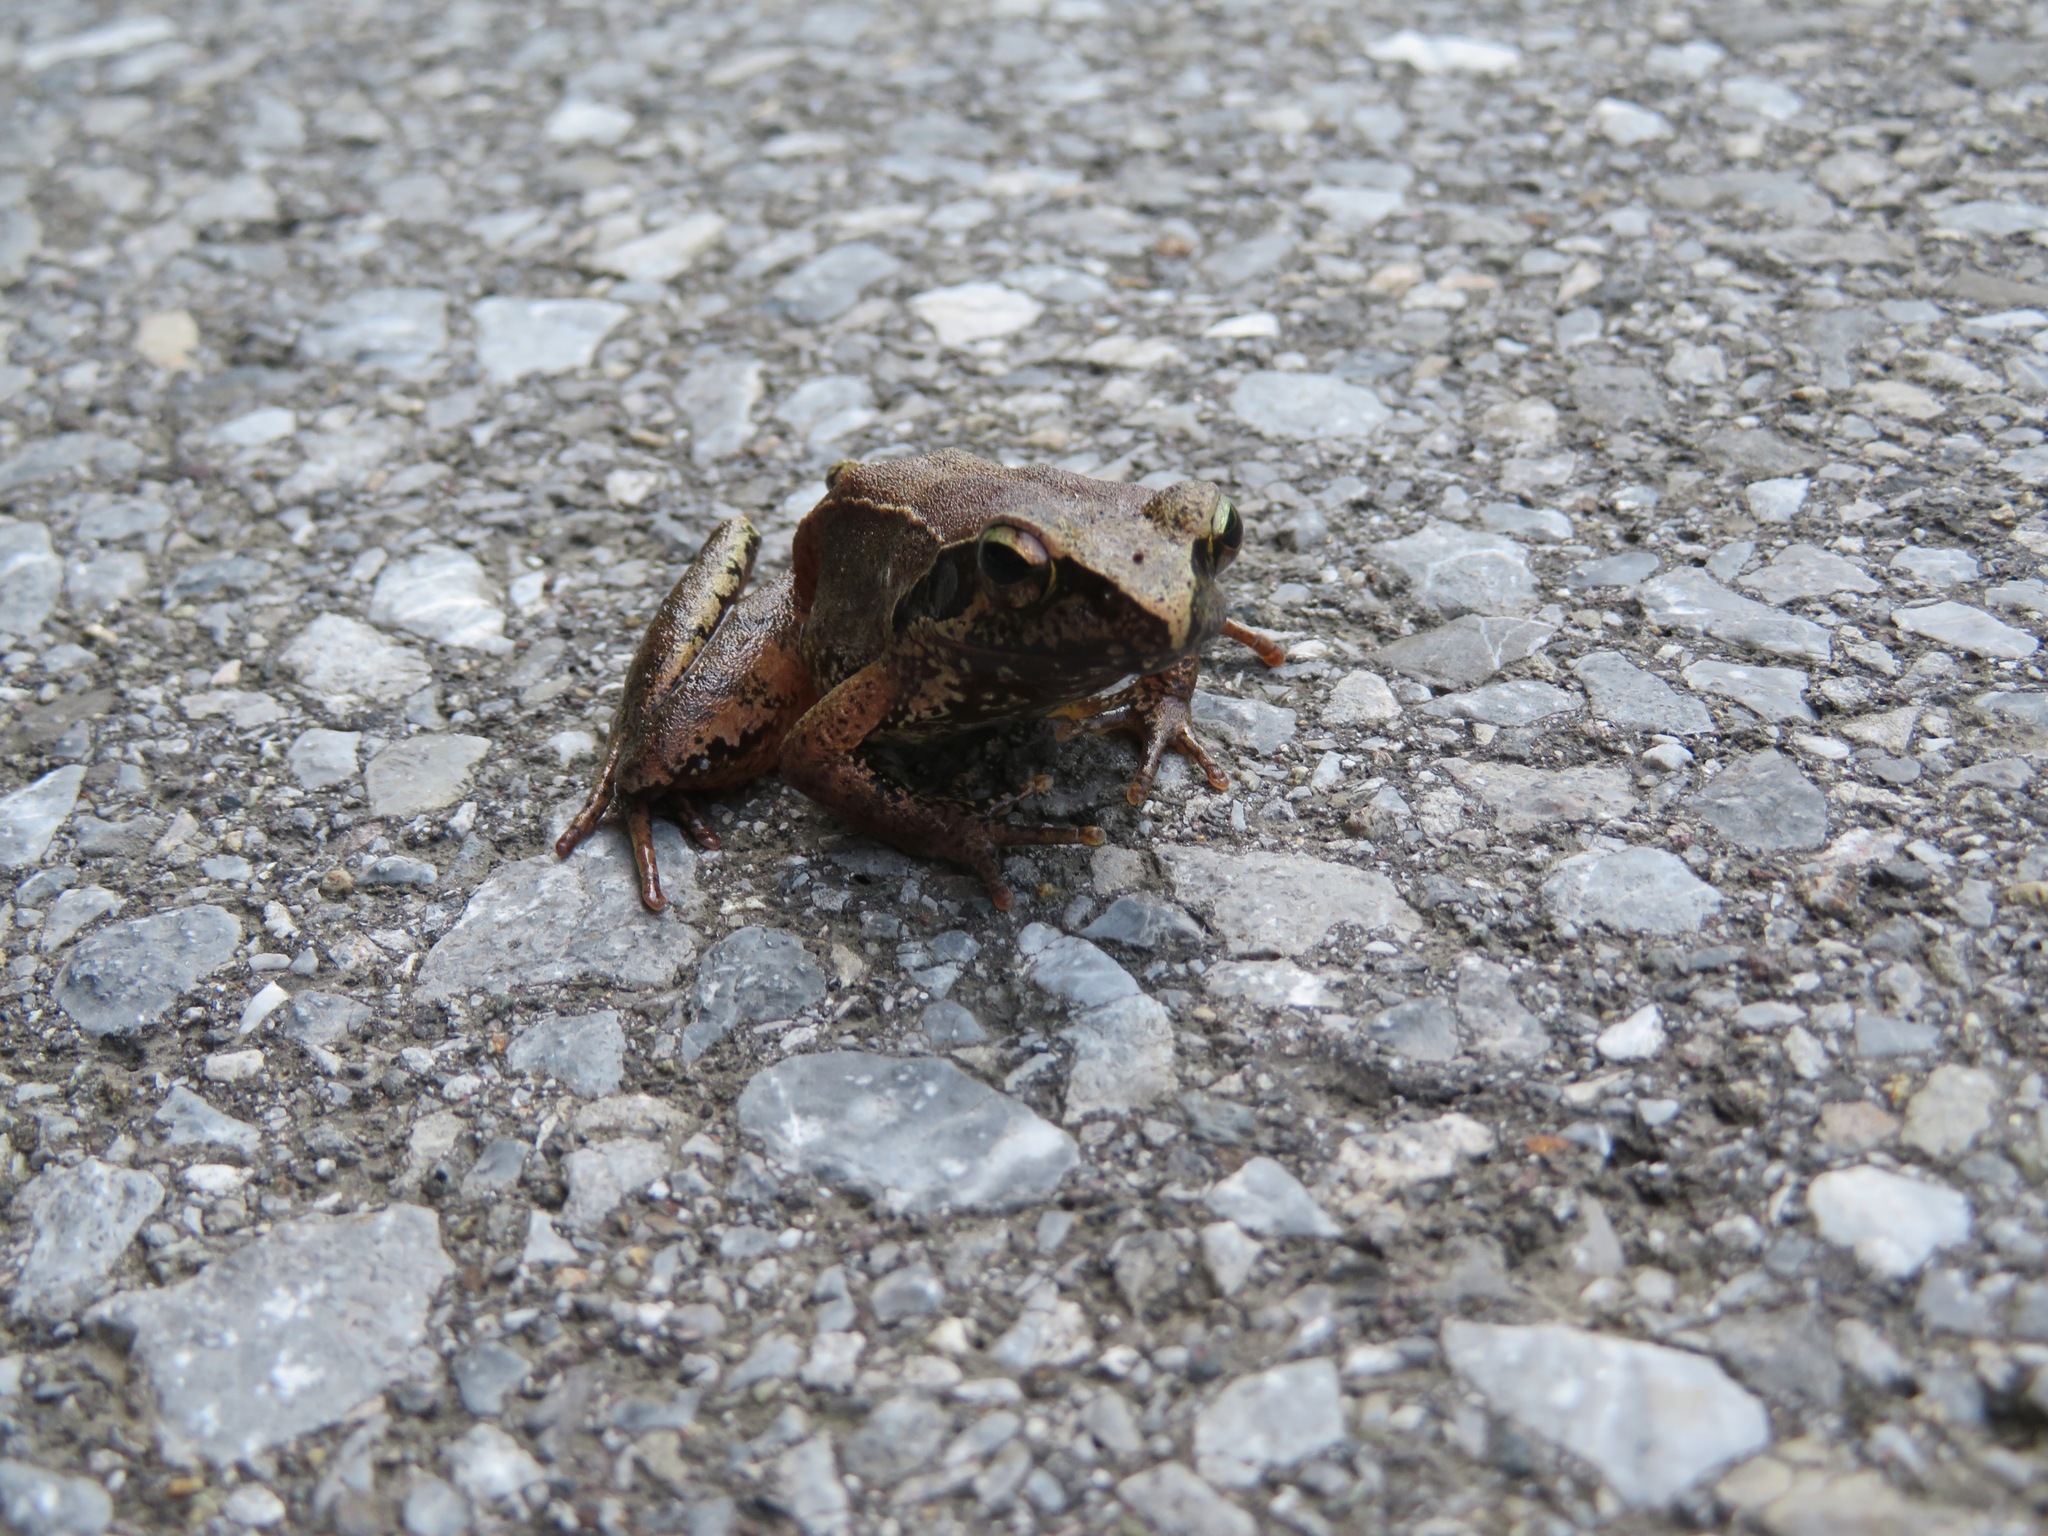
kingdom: Animalia
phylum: Chordata
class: Amphibia
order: Anura
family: Ranidae
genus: Rana
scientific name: Rana tagoi
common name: Tago's brown frog
